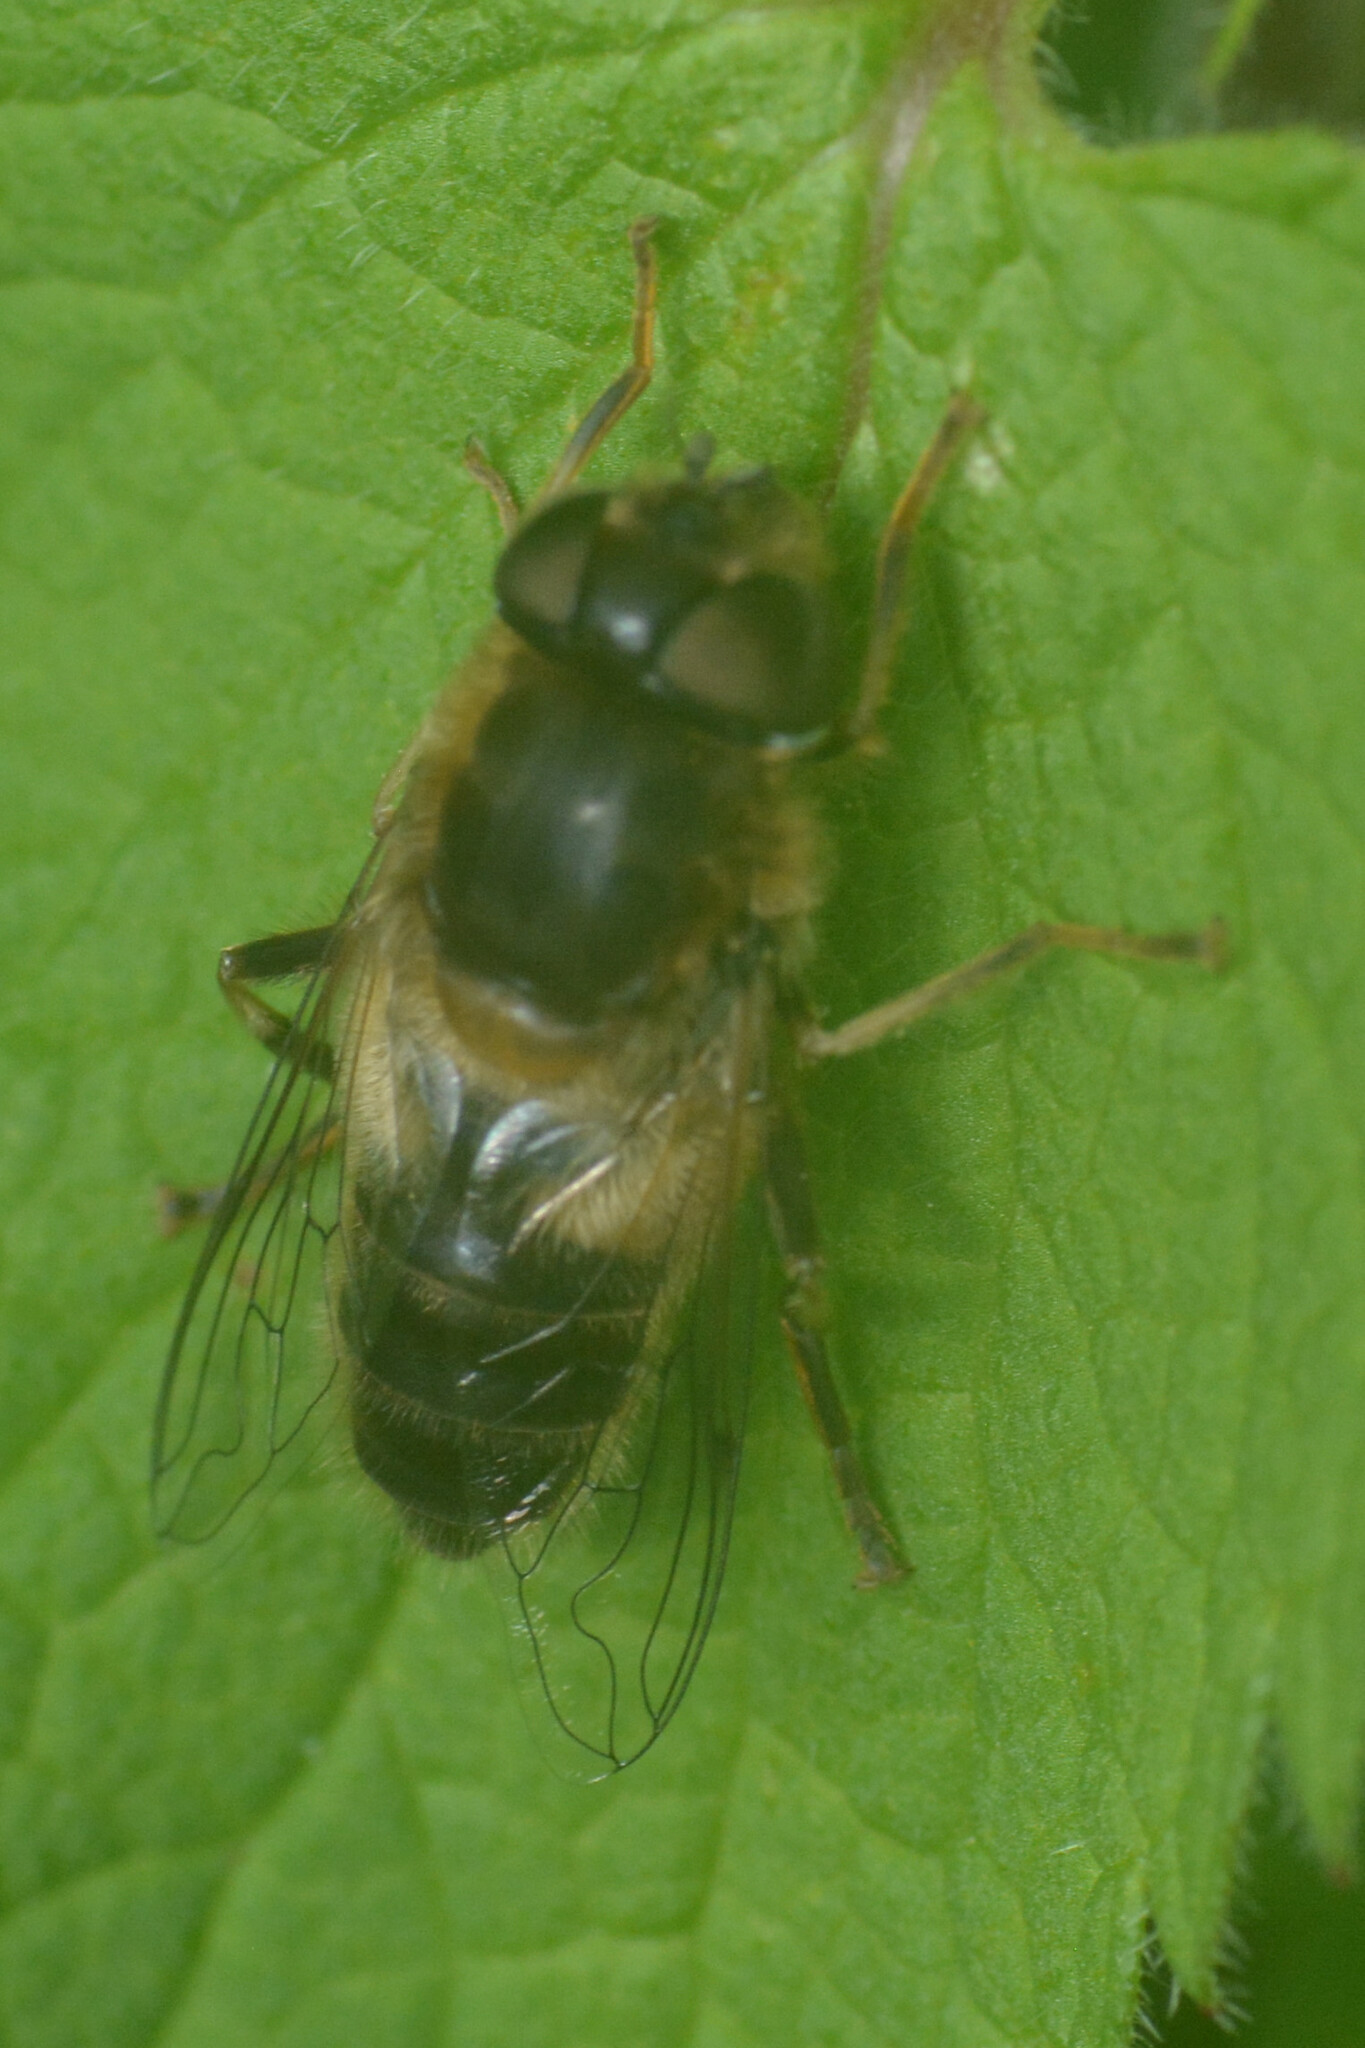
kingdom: Animalia
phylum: Arthropoda
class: Insecta
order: Diptera
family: Syrphidae
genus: Eristalis
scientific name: Eristalis pertinax
